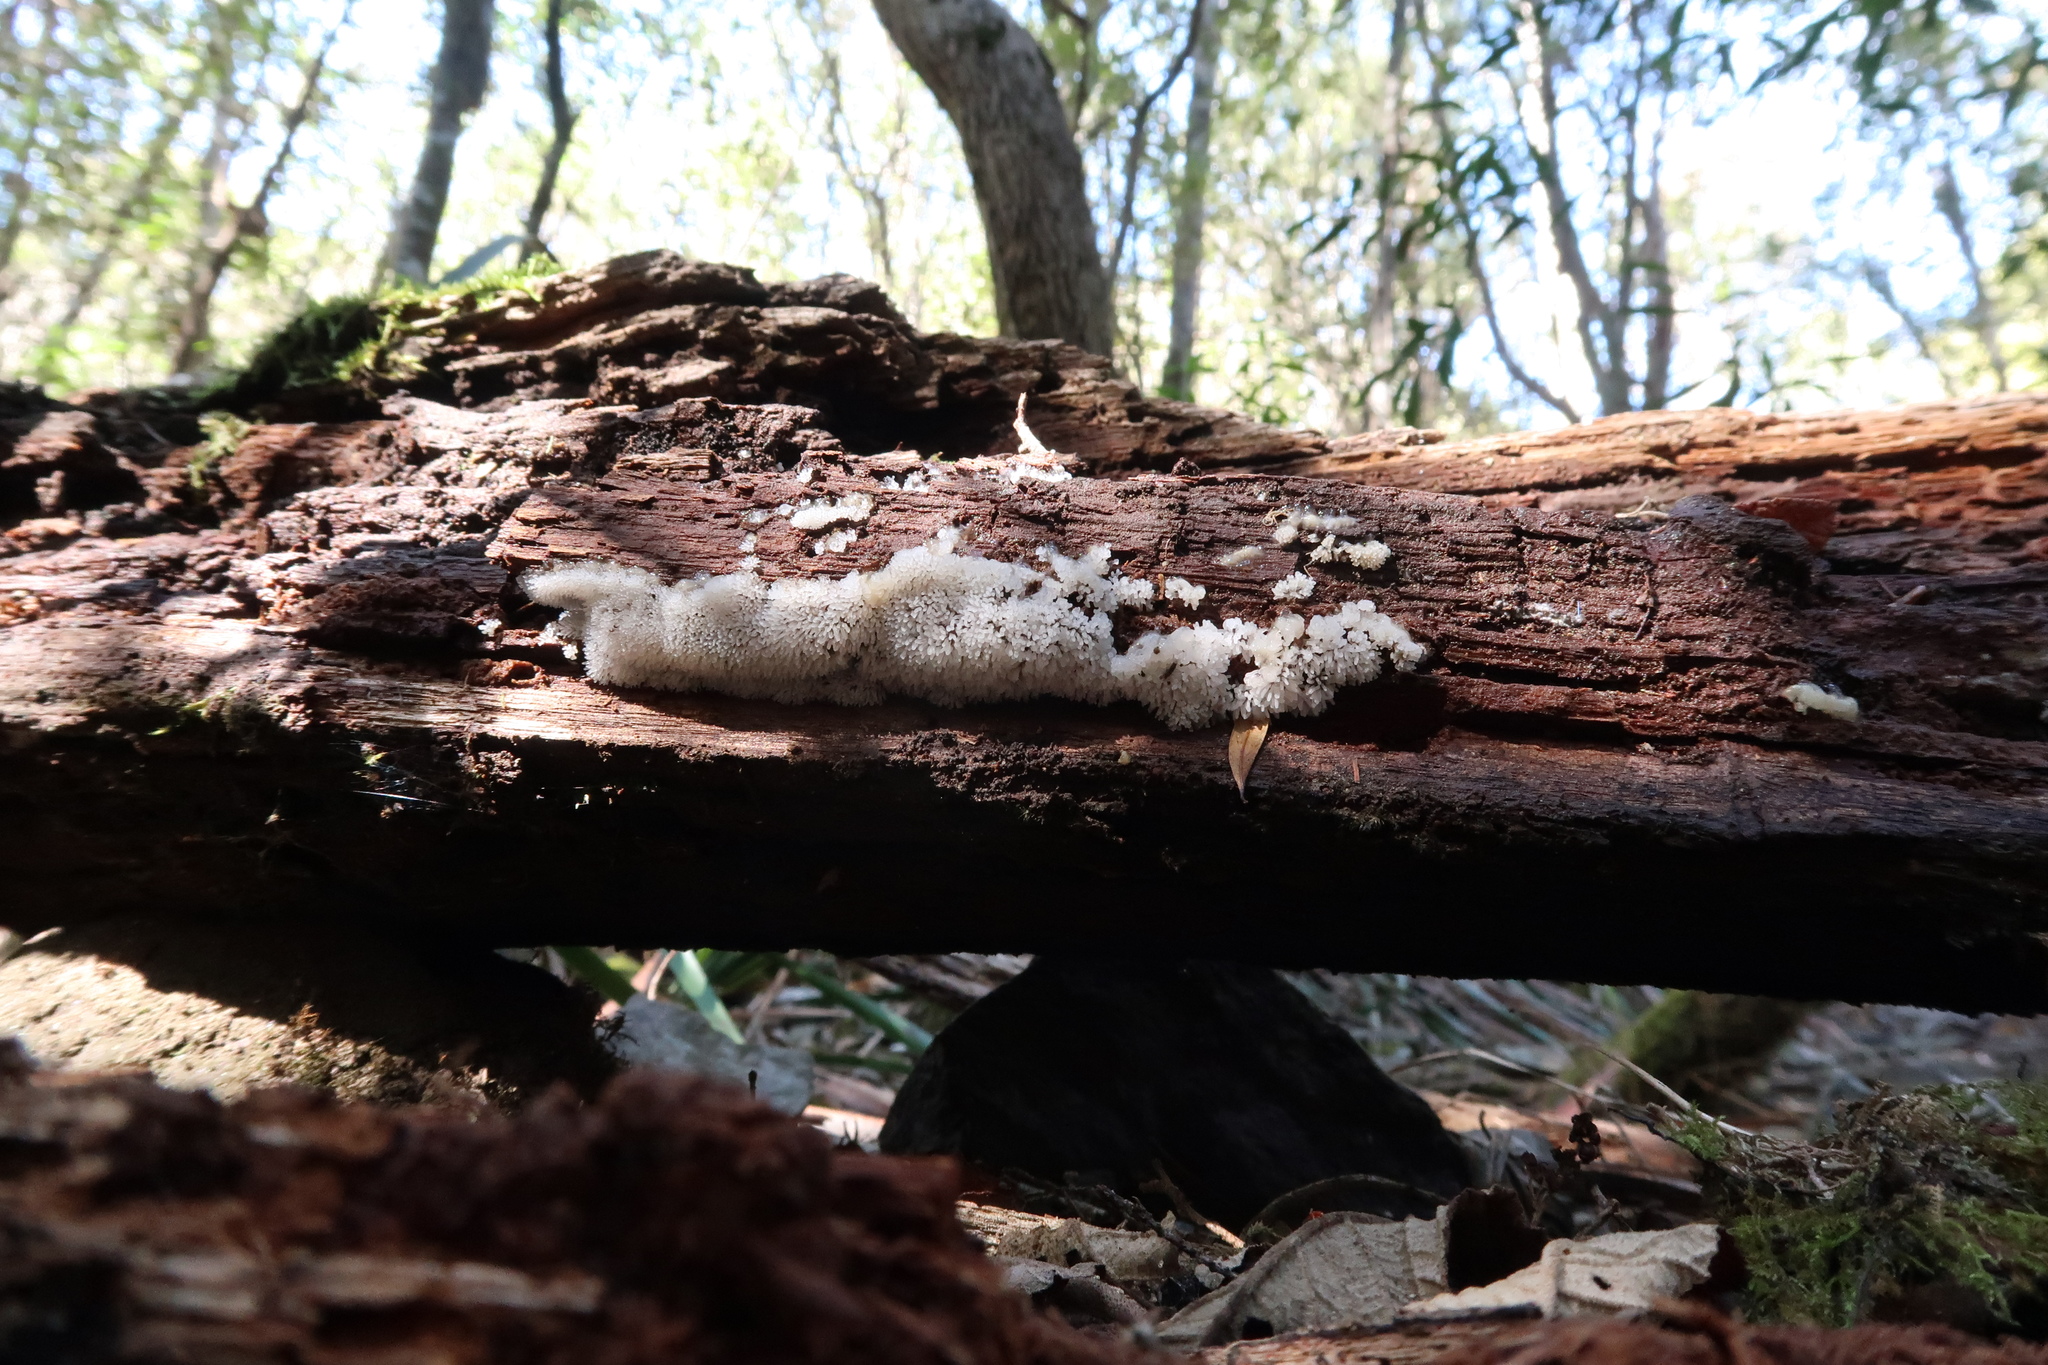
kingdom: Protozoa
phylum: Mycetozoa
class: Protosteliomycetes
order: Ceratiomyxales
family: Ceratiomyxaceae
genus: Ceratiomyxa
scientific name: Ceratiomyxa fruticulosa
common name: Honeycomb coral slime mold
